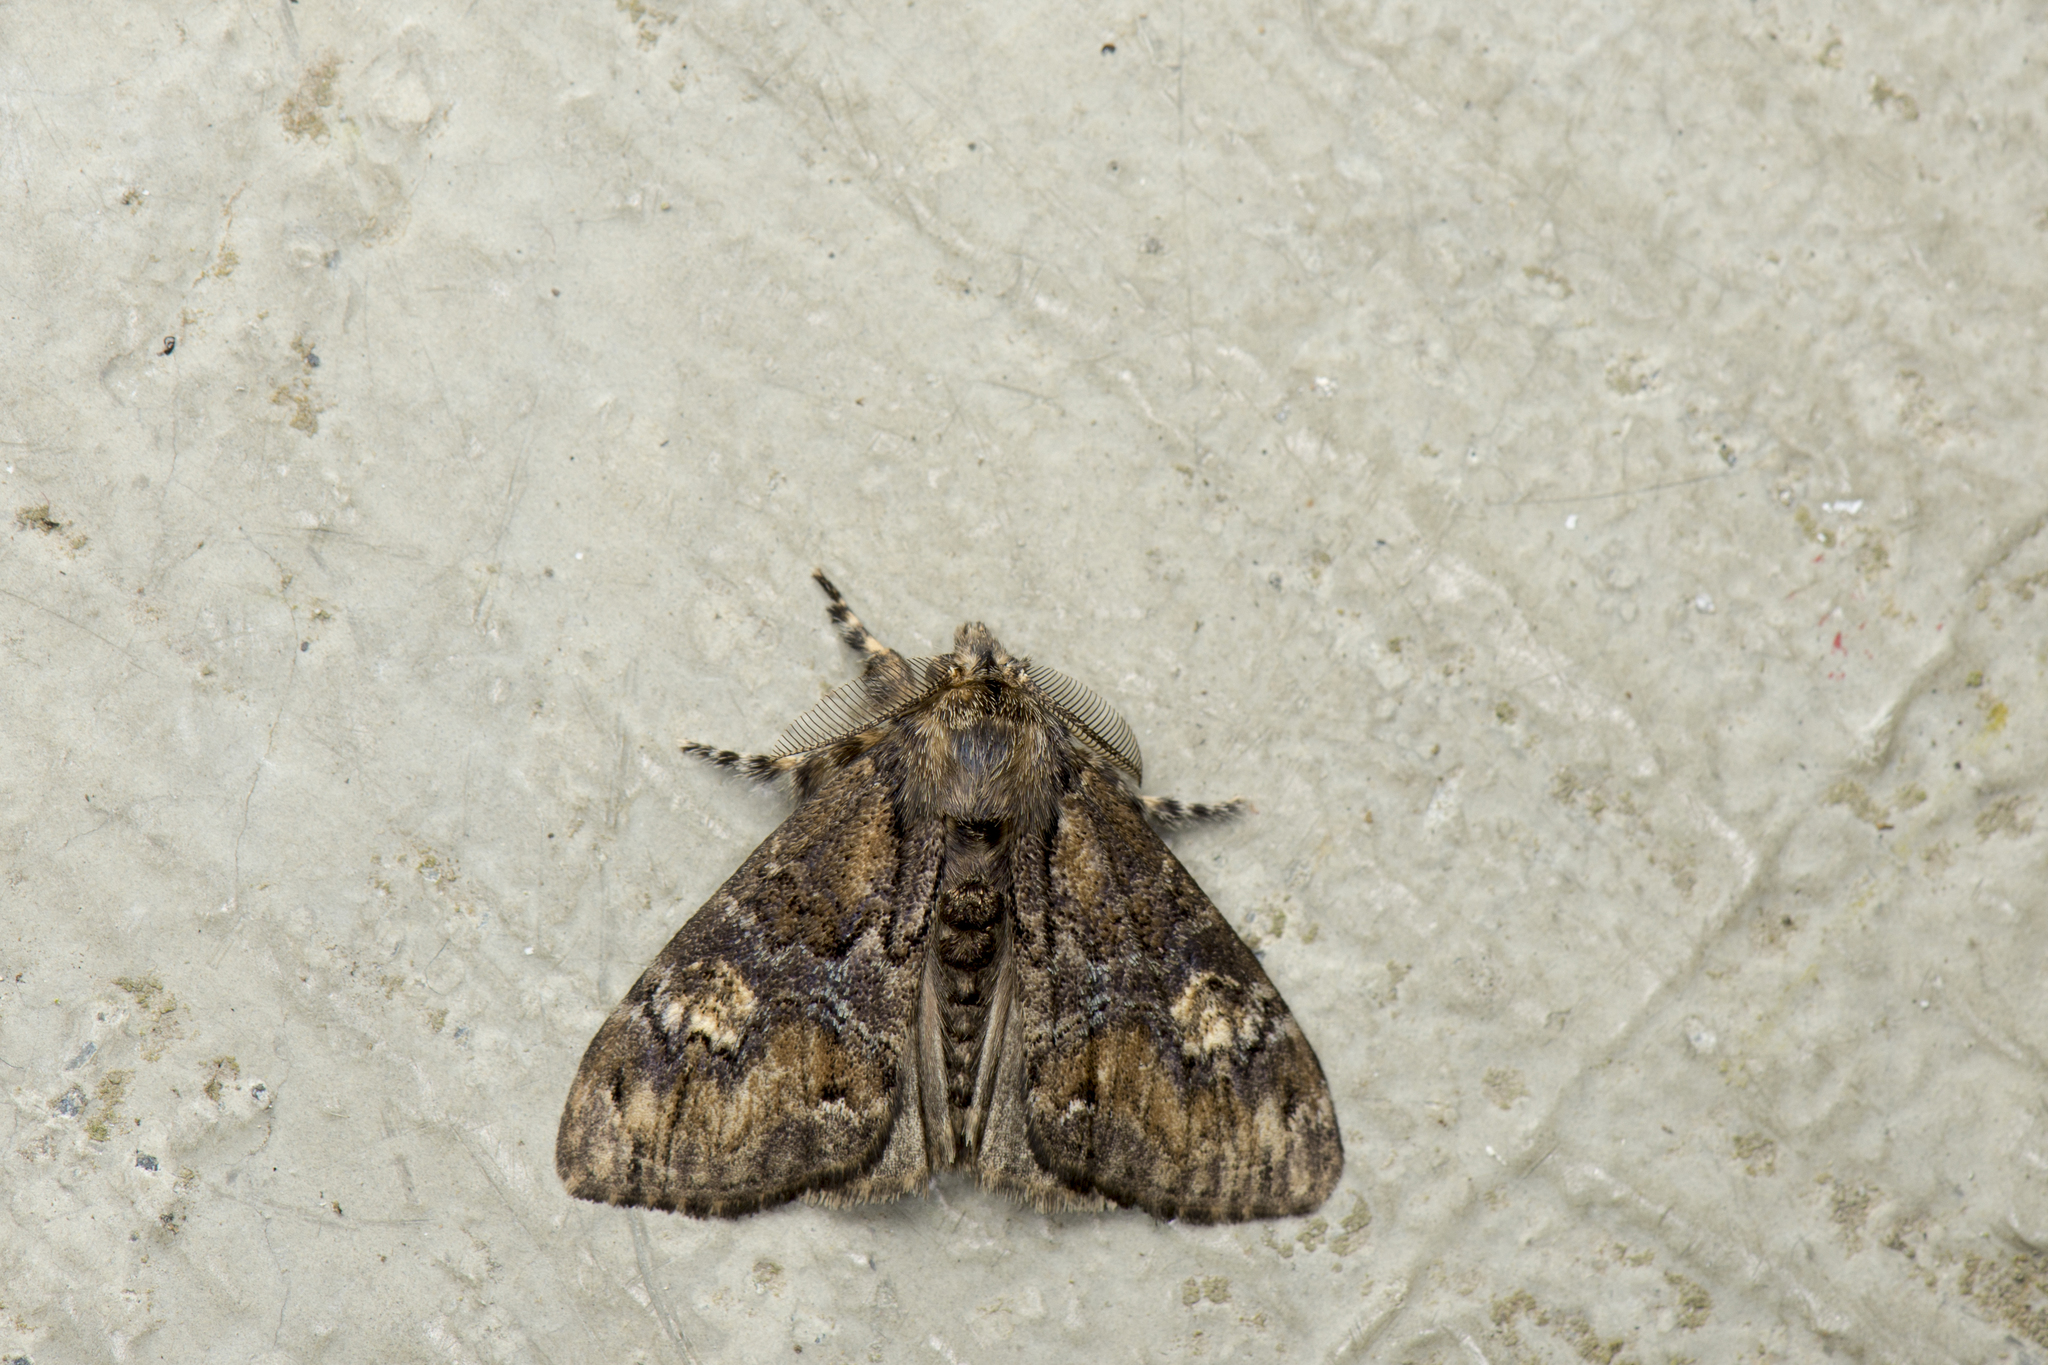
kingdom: Animalia
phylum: Arthropoda
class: Insecta
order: Lepidoptera
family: Erebidae
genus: Olene
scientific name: Olene baibarana
